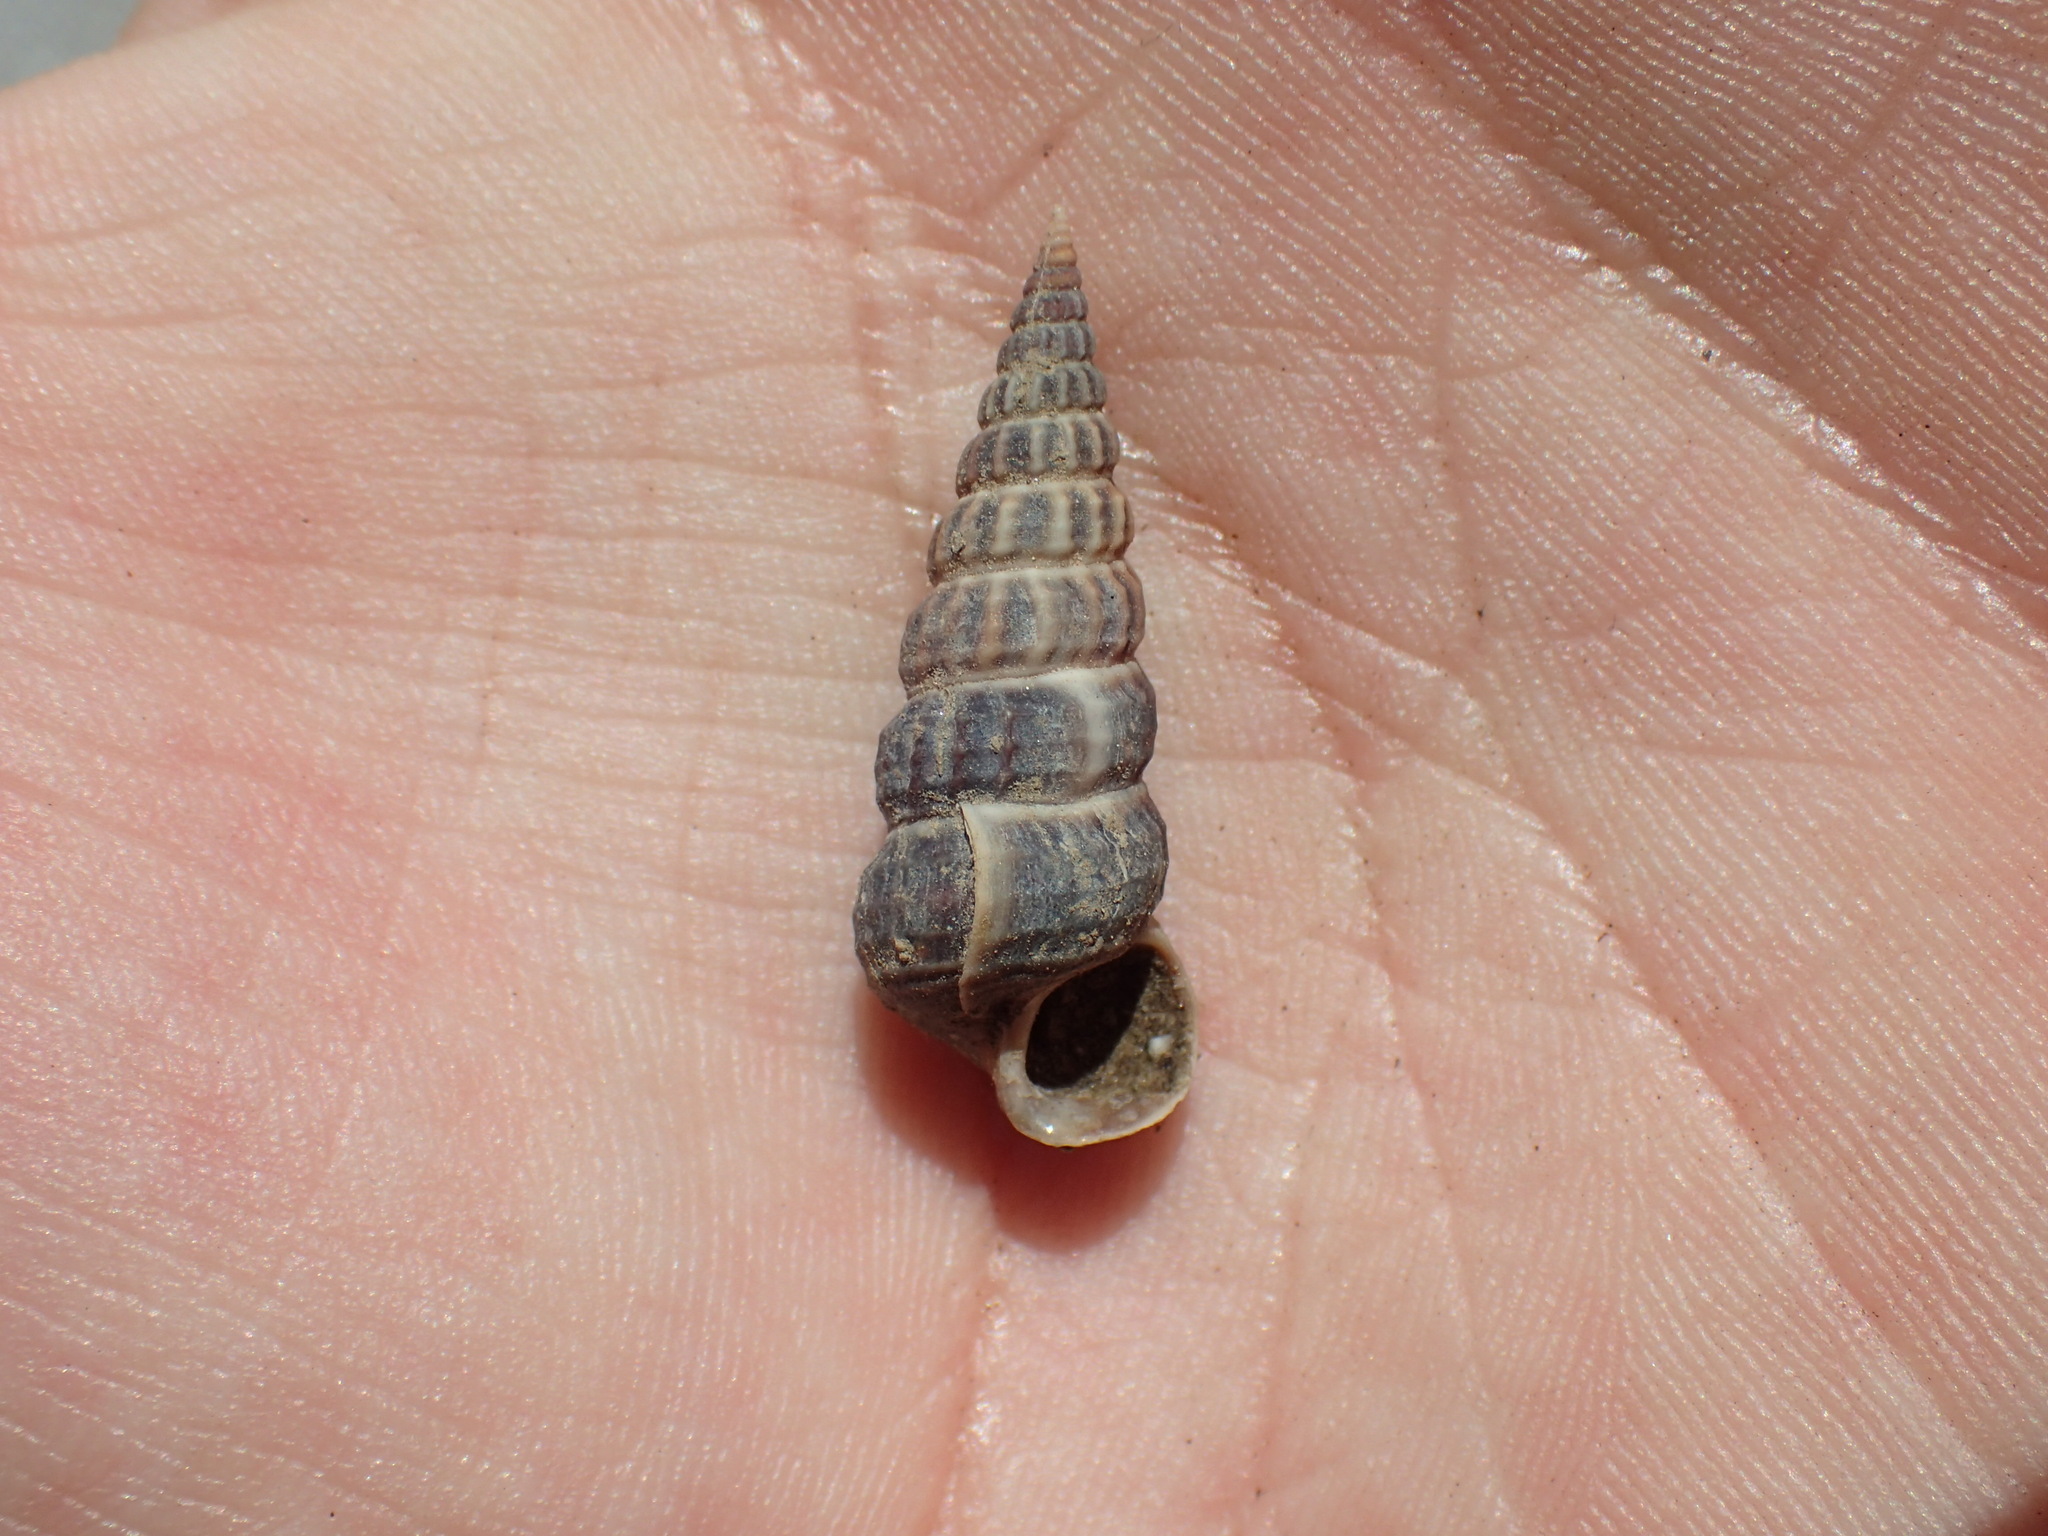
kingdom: Animalia
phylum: Mollusca
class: Gastropoda
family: Potamididae
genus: Cerithideopsis
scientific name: Cerithideopsis californica
